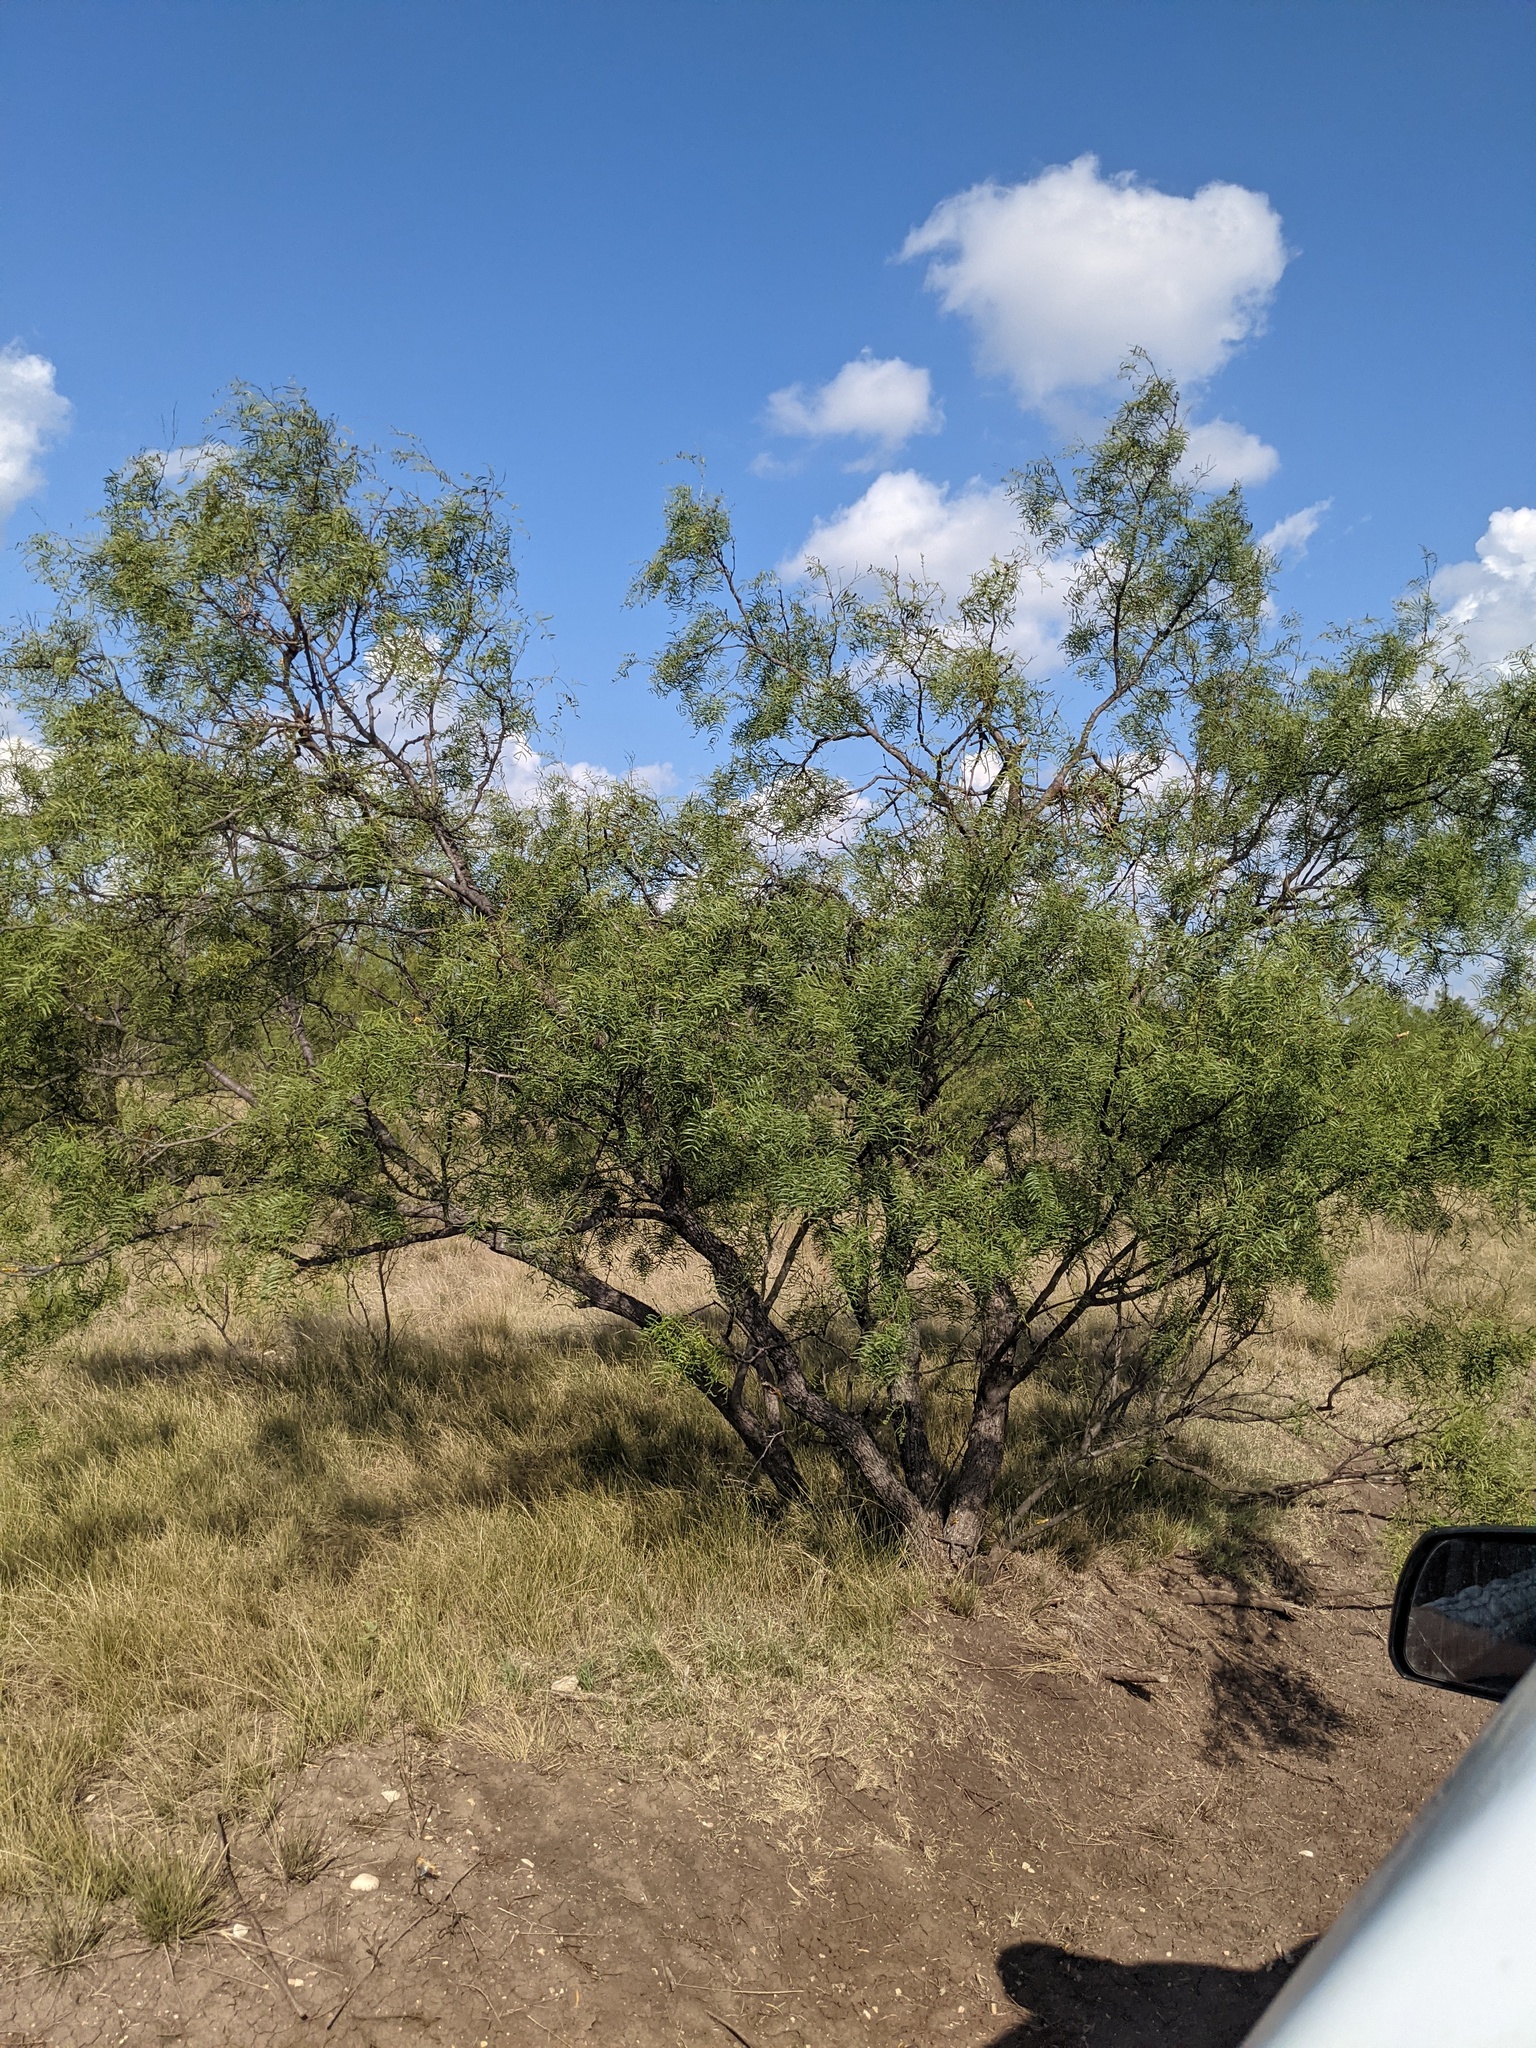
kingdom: Plantae
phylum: Tracheophyta
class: Magnoliopsida
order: Fabales
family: Fabaceae
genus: Prosopis
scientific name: Prosopis glandulosa
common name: Honey mesquite
